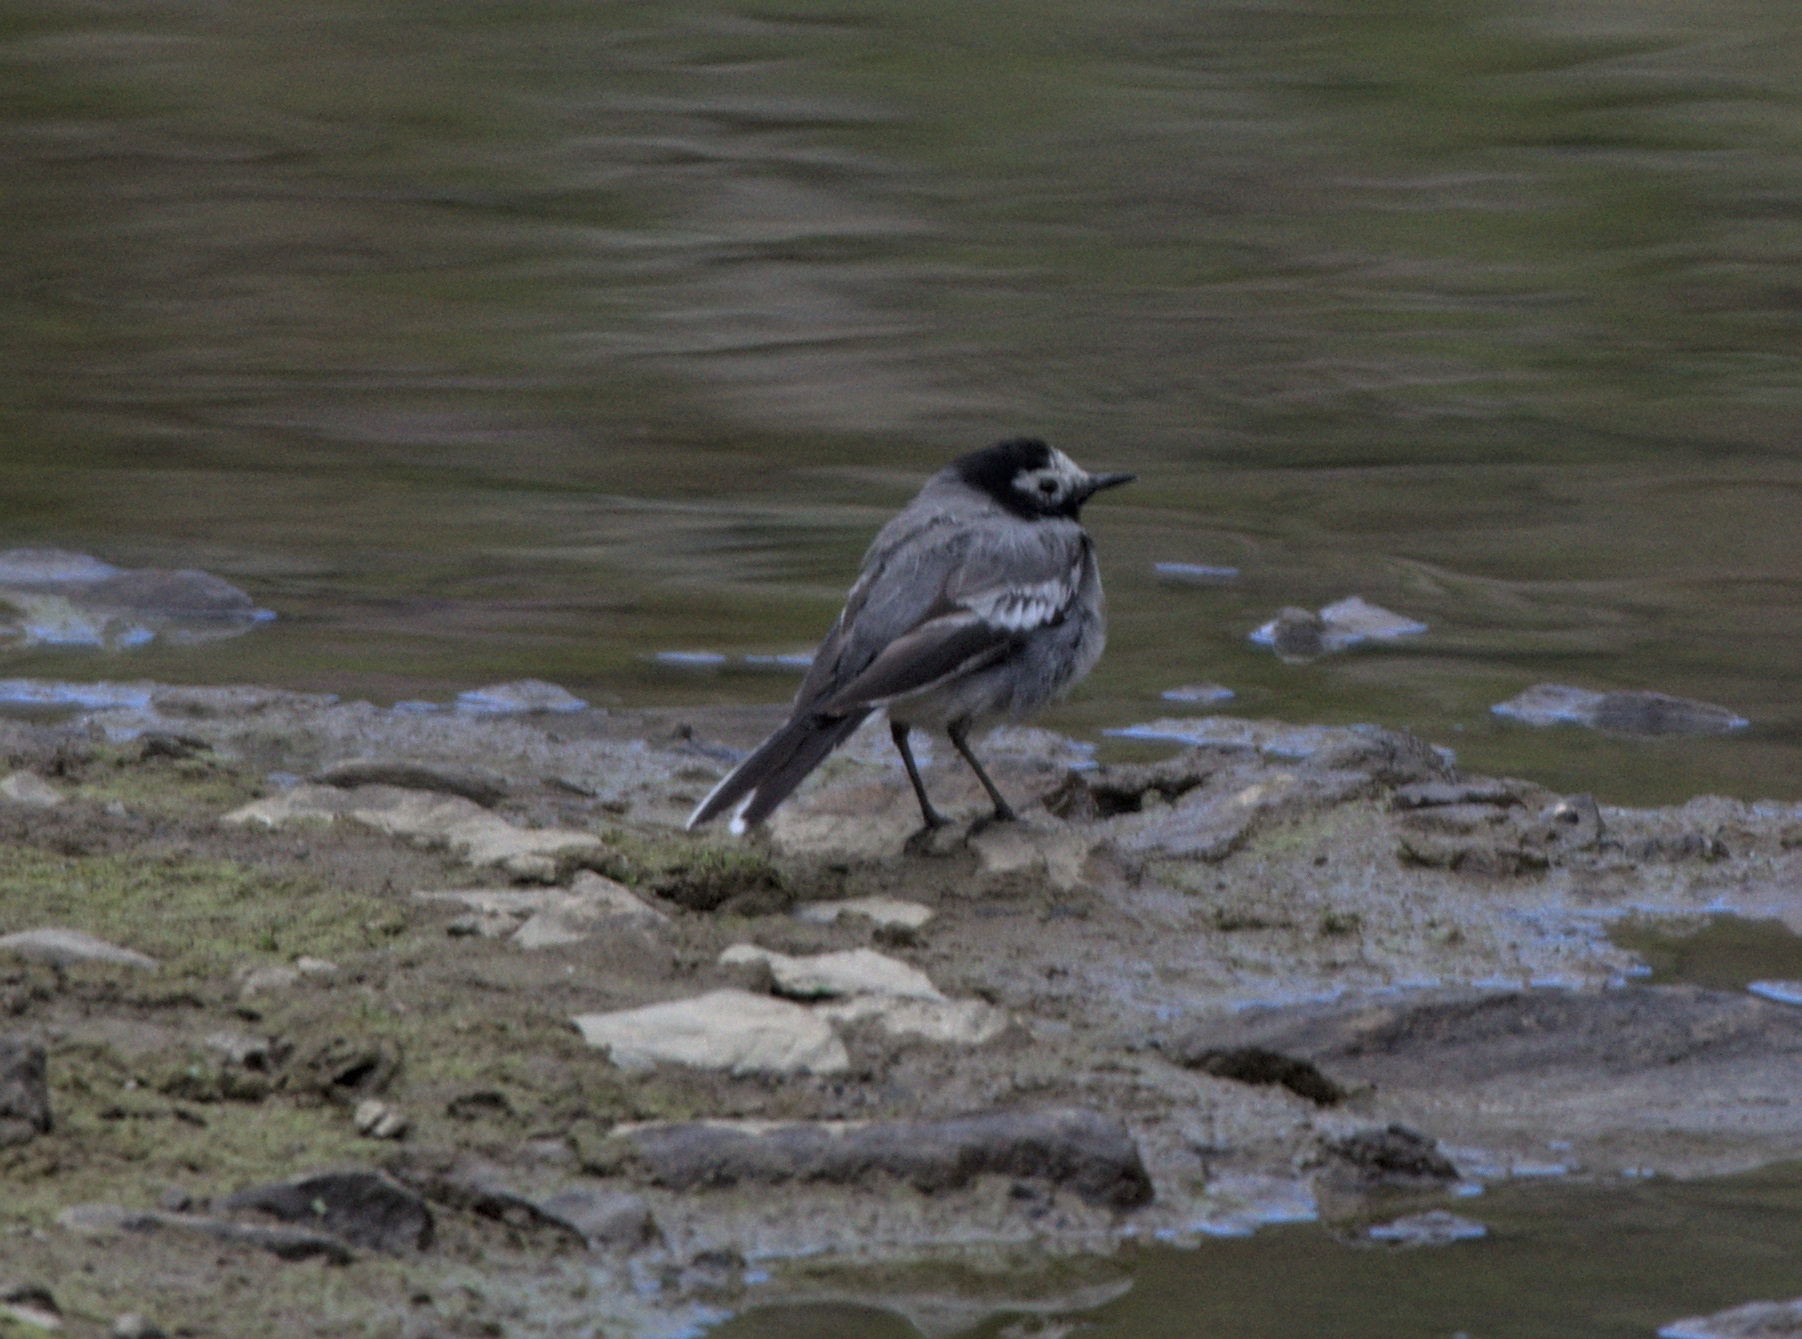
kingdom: Animalia
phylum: Chordata
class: Aves
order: Passeriformes
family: Motacillidae
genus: Motacilla
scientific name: Motacilla alba
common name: White wagtail
